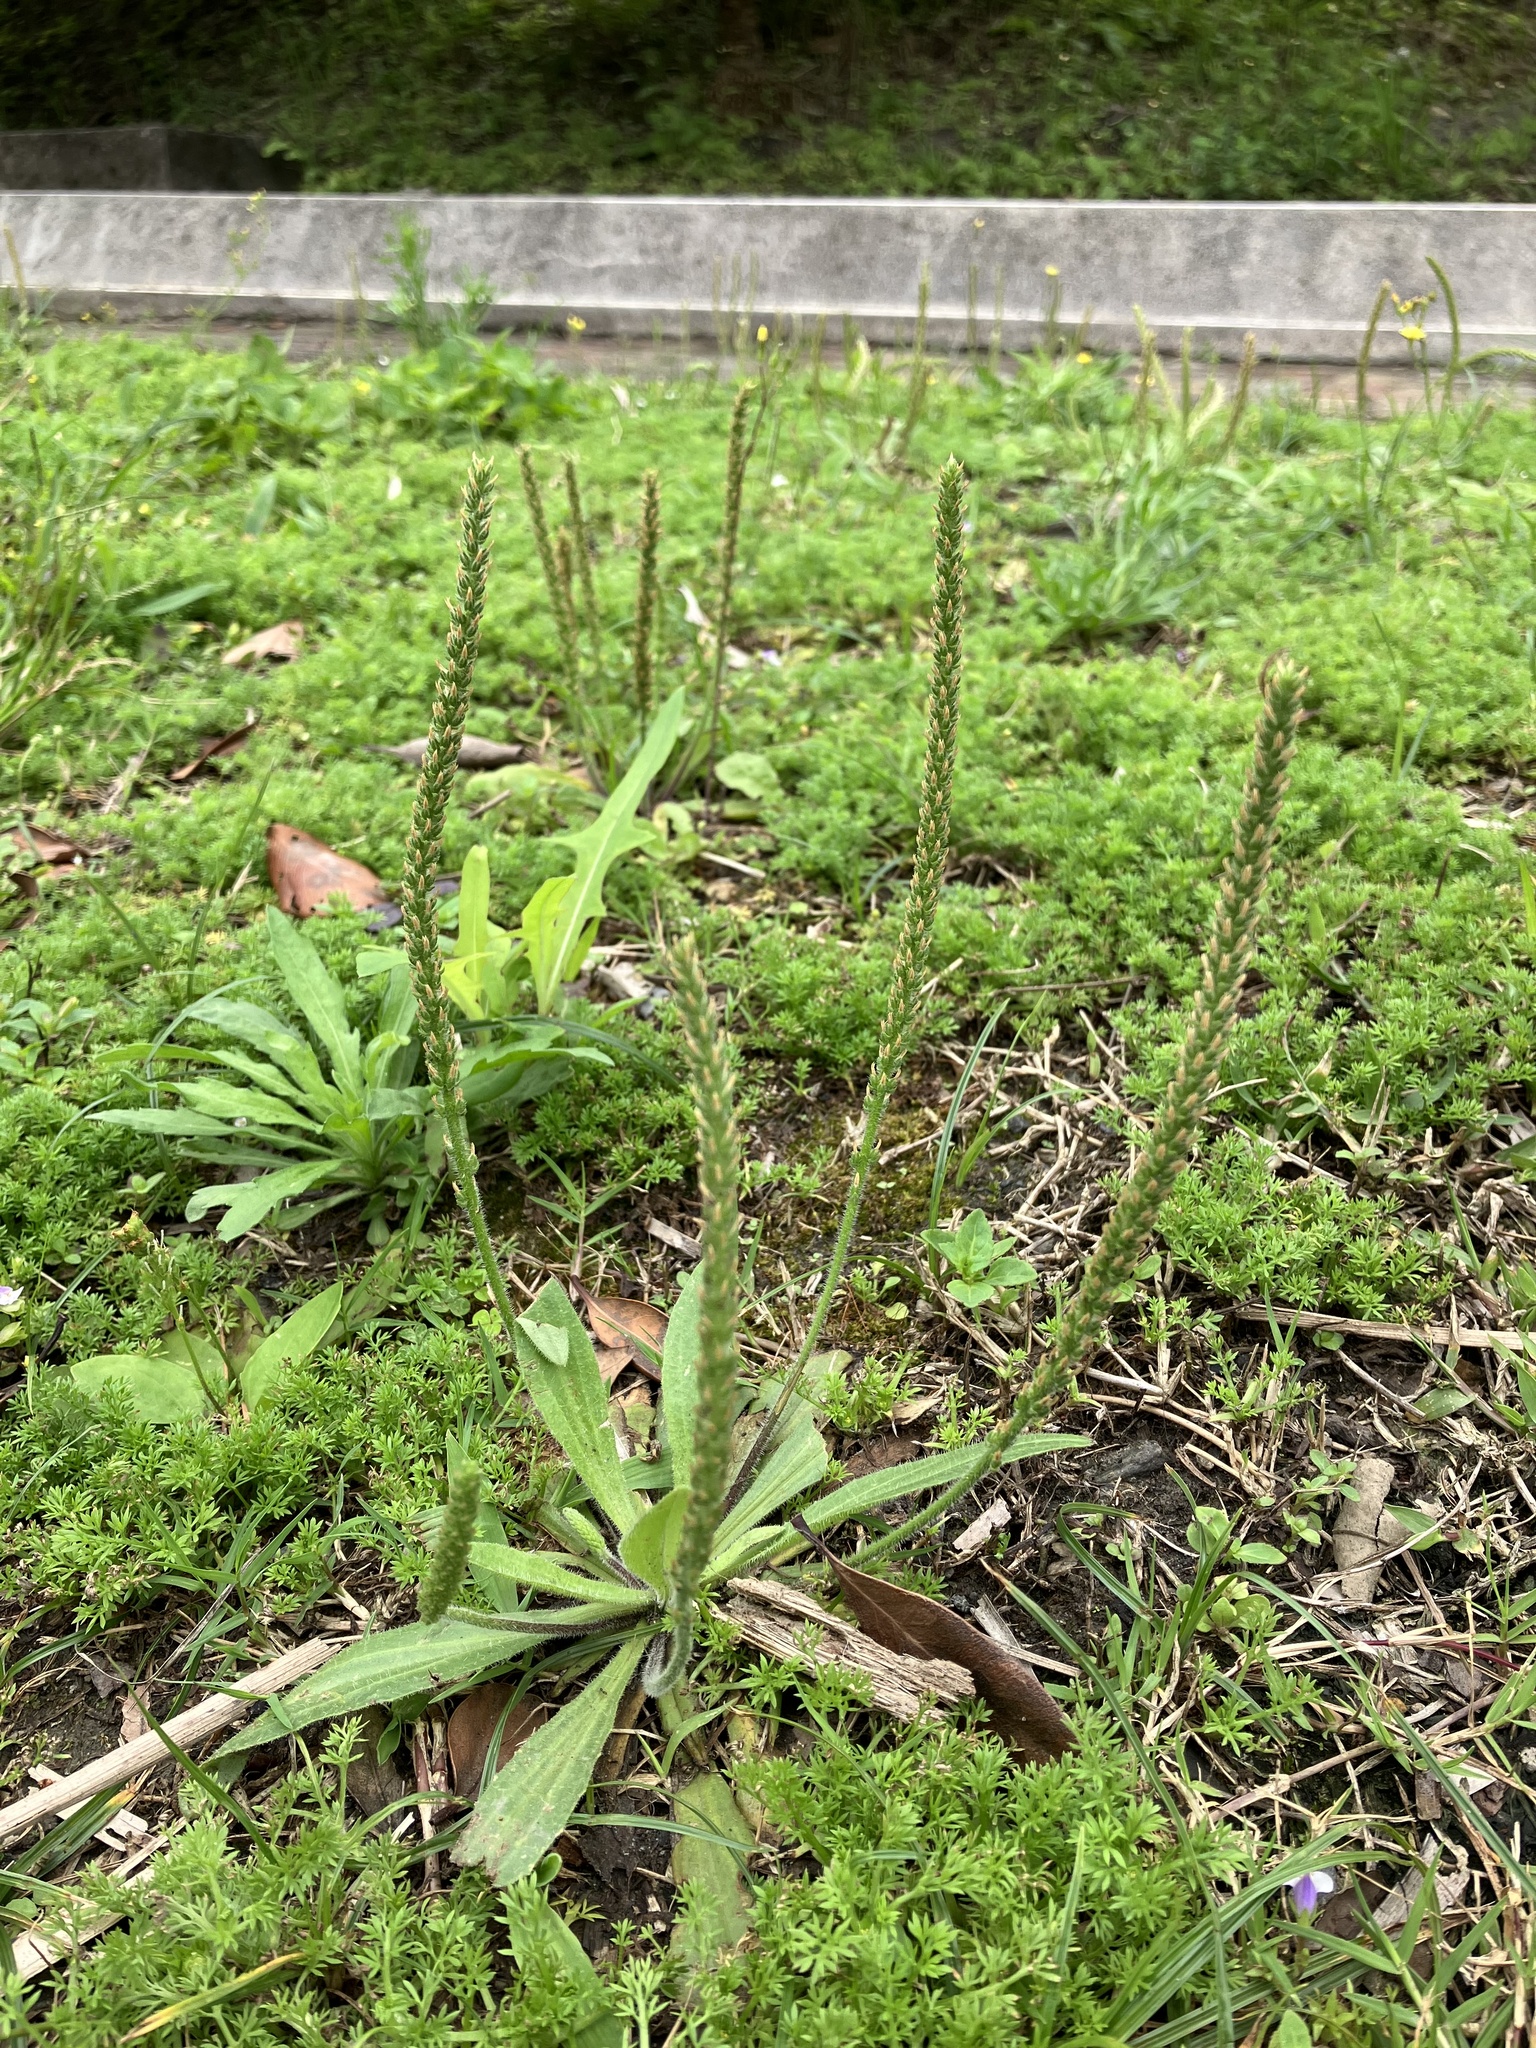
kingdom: Plantae
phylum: Tracheophyta
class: Magnoliopsida
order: Lamiales
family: Plantaginaceae
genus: Plantago
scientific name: Plantago virginica
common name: Hoary plantain
